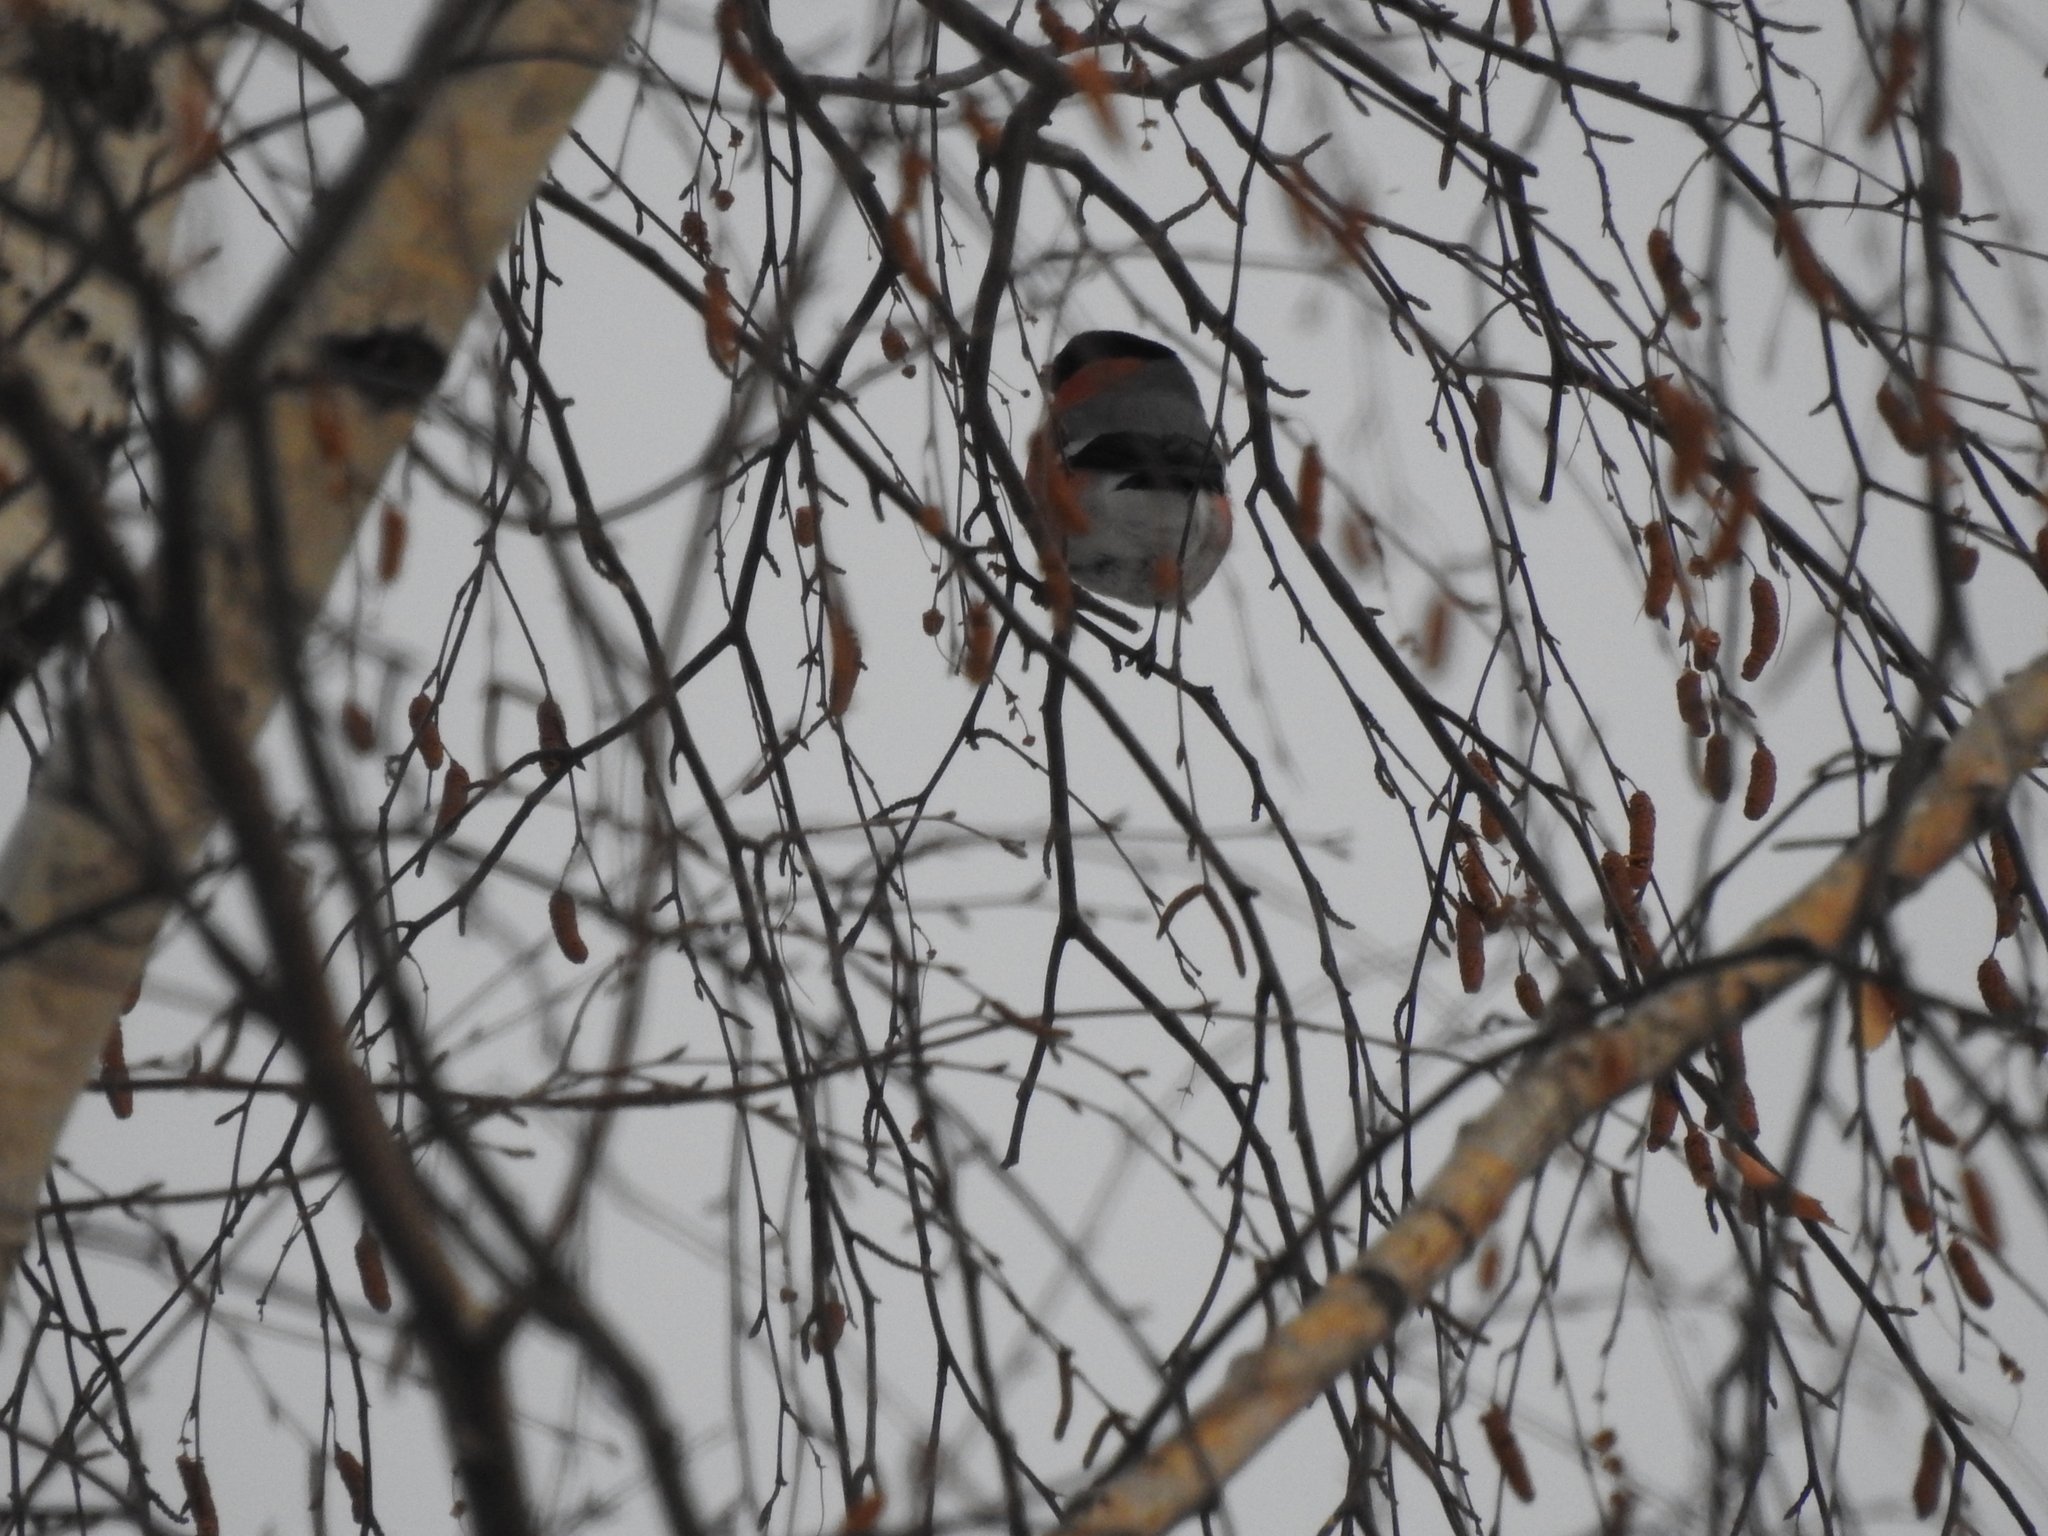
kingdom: Animalia
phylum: Chordata
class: Aves
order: Passeriformes
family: Fringillidae
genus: Pyrrhula
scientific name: Pyrrhula pyrrhula
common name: Eurasian bullfinch
